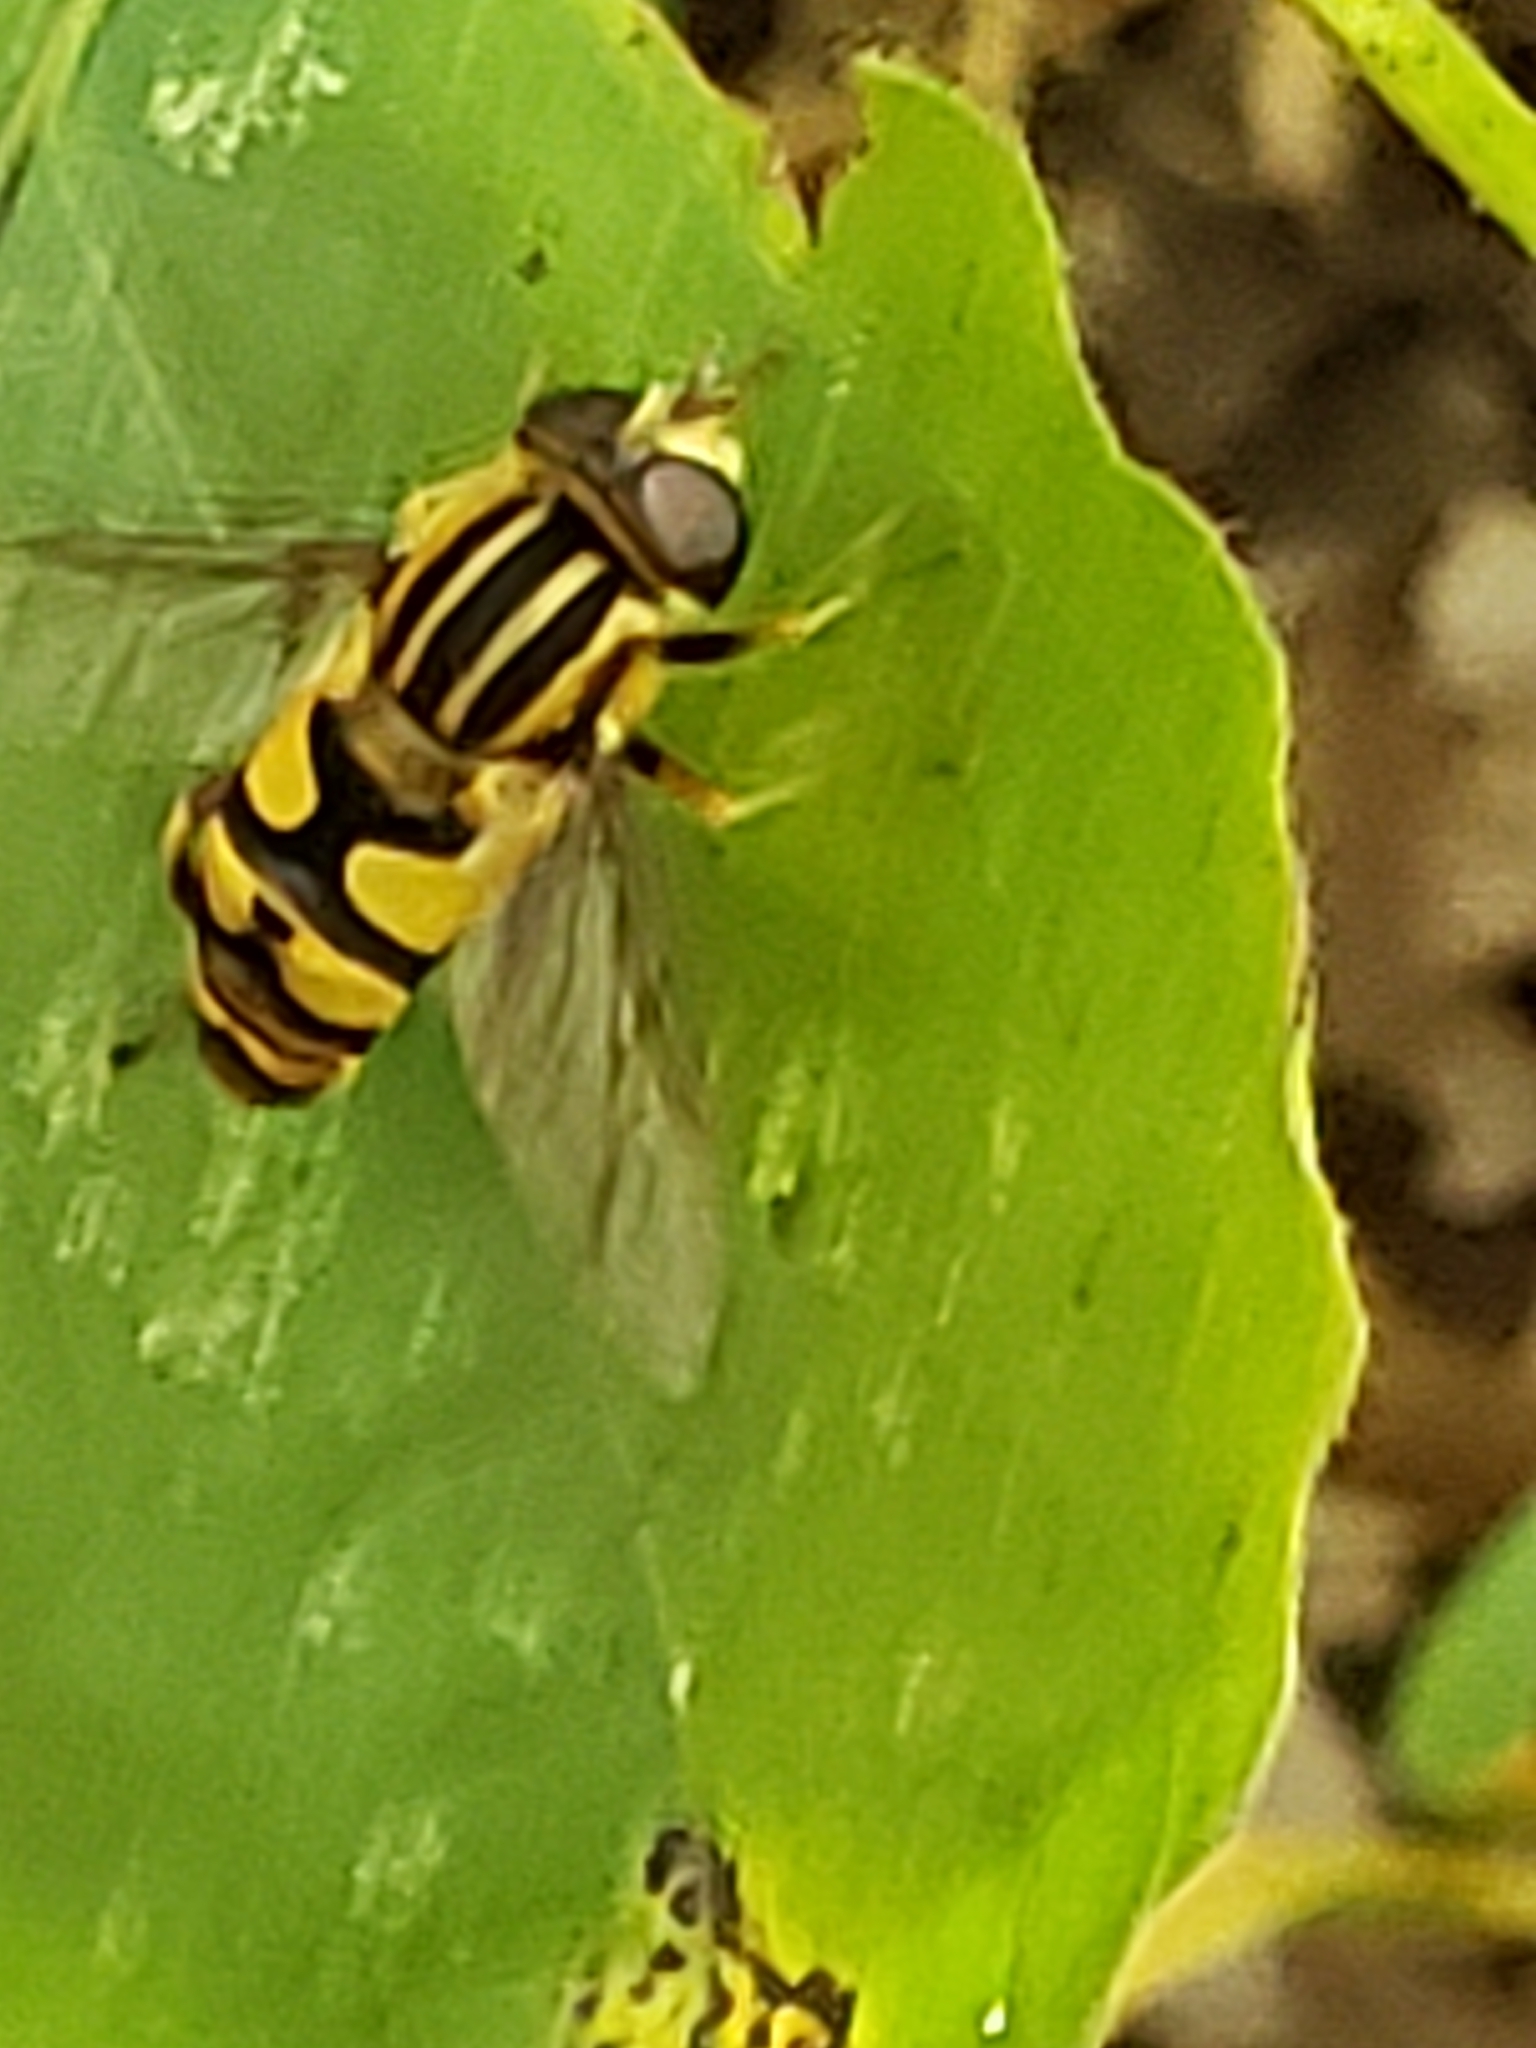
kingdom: Animalia
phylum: Arthropoda
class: Insecta
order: Diptera
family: Syrphidae
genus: Helophilus
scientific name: Helophilus fasciatus
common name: Narrow-headed marsh fly
